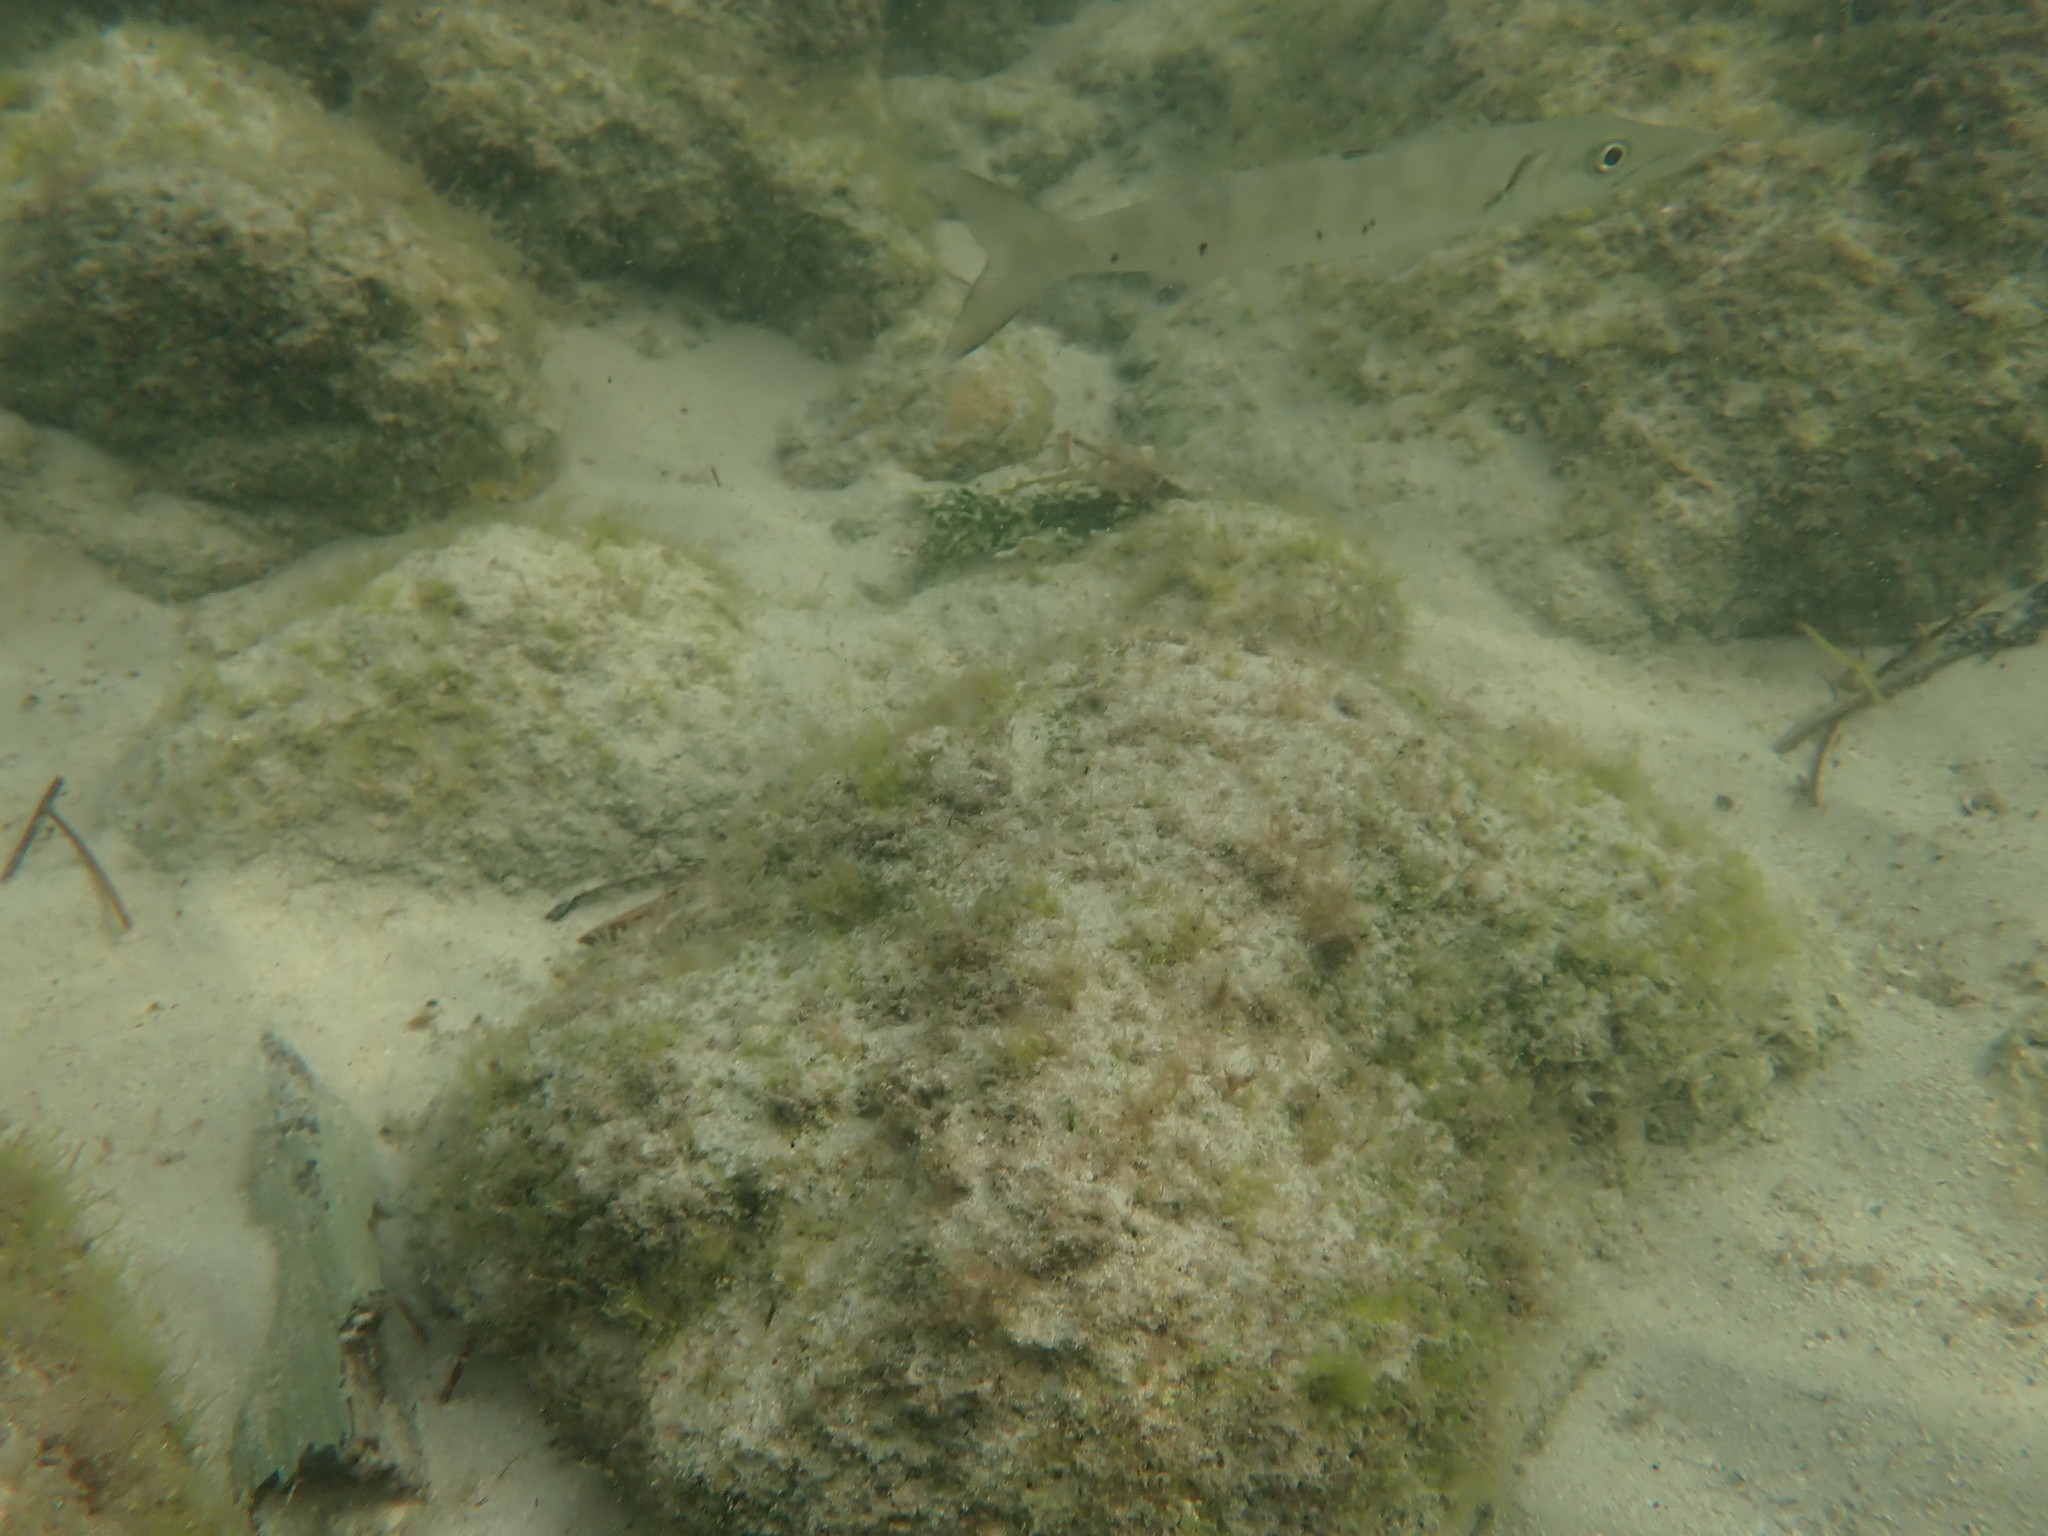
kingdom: Animalia
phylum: Chordata
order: Perciformes
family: Sphyraenidae
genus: Sphyraena
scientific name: Sphyraena barracuda
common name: Great barracuda
